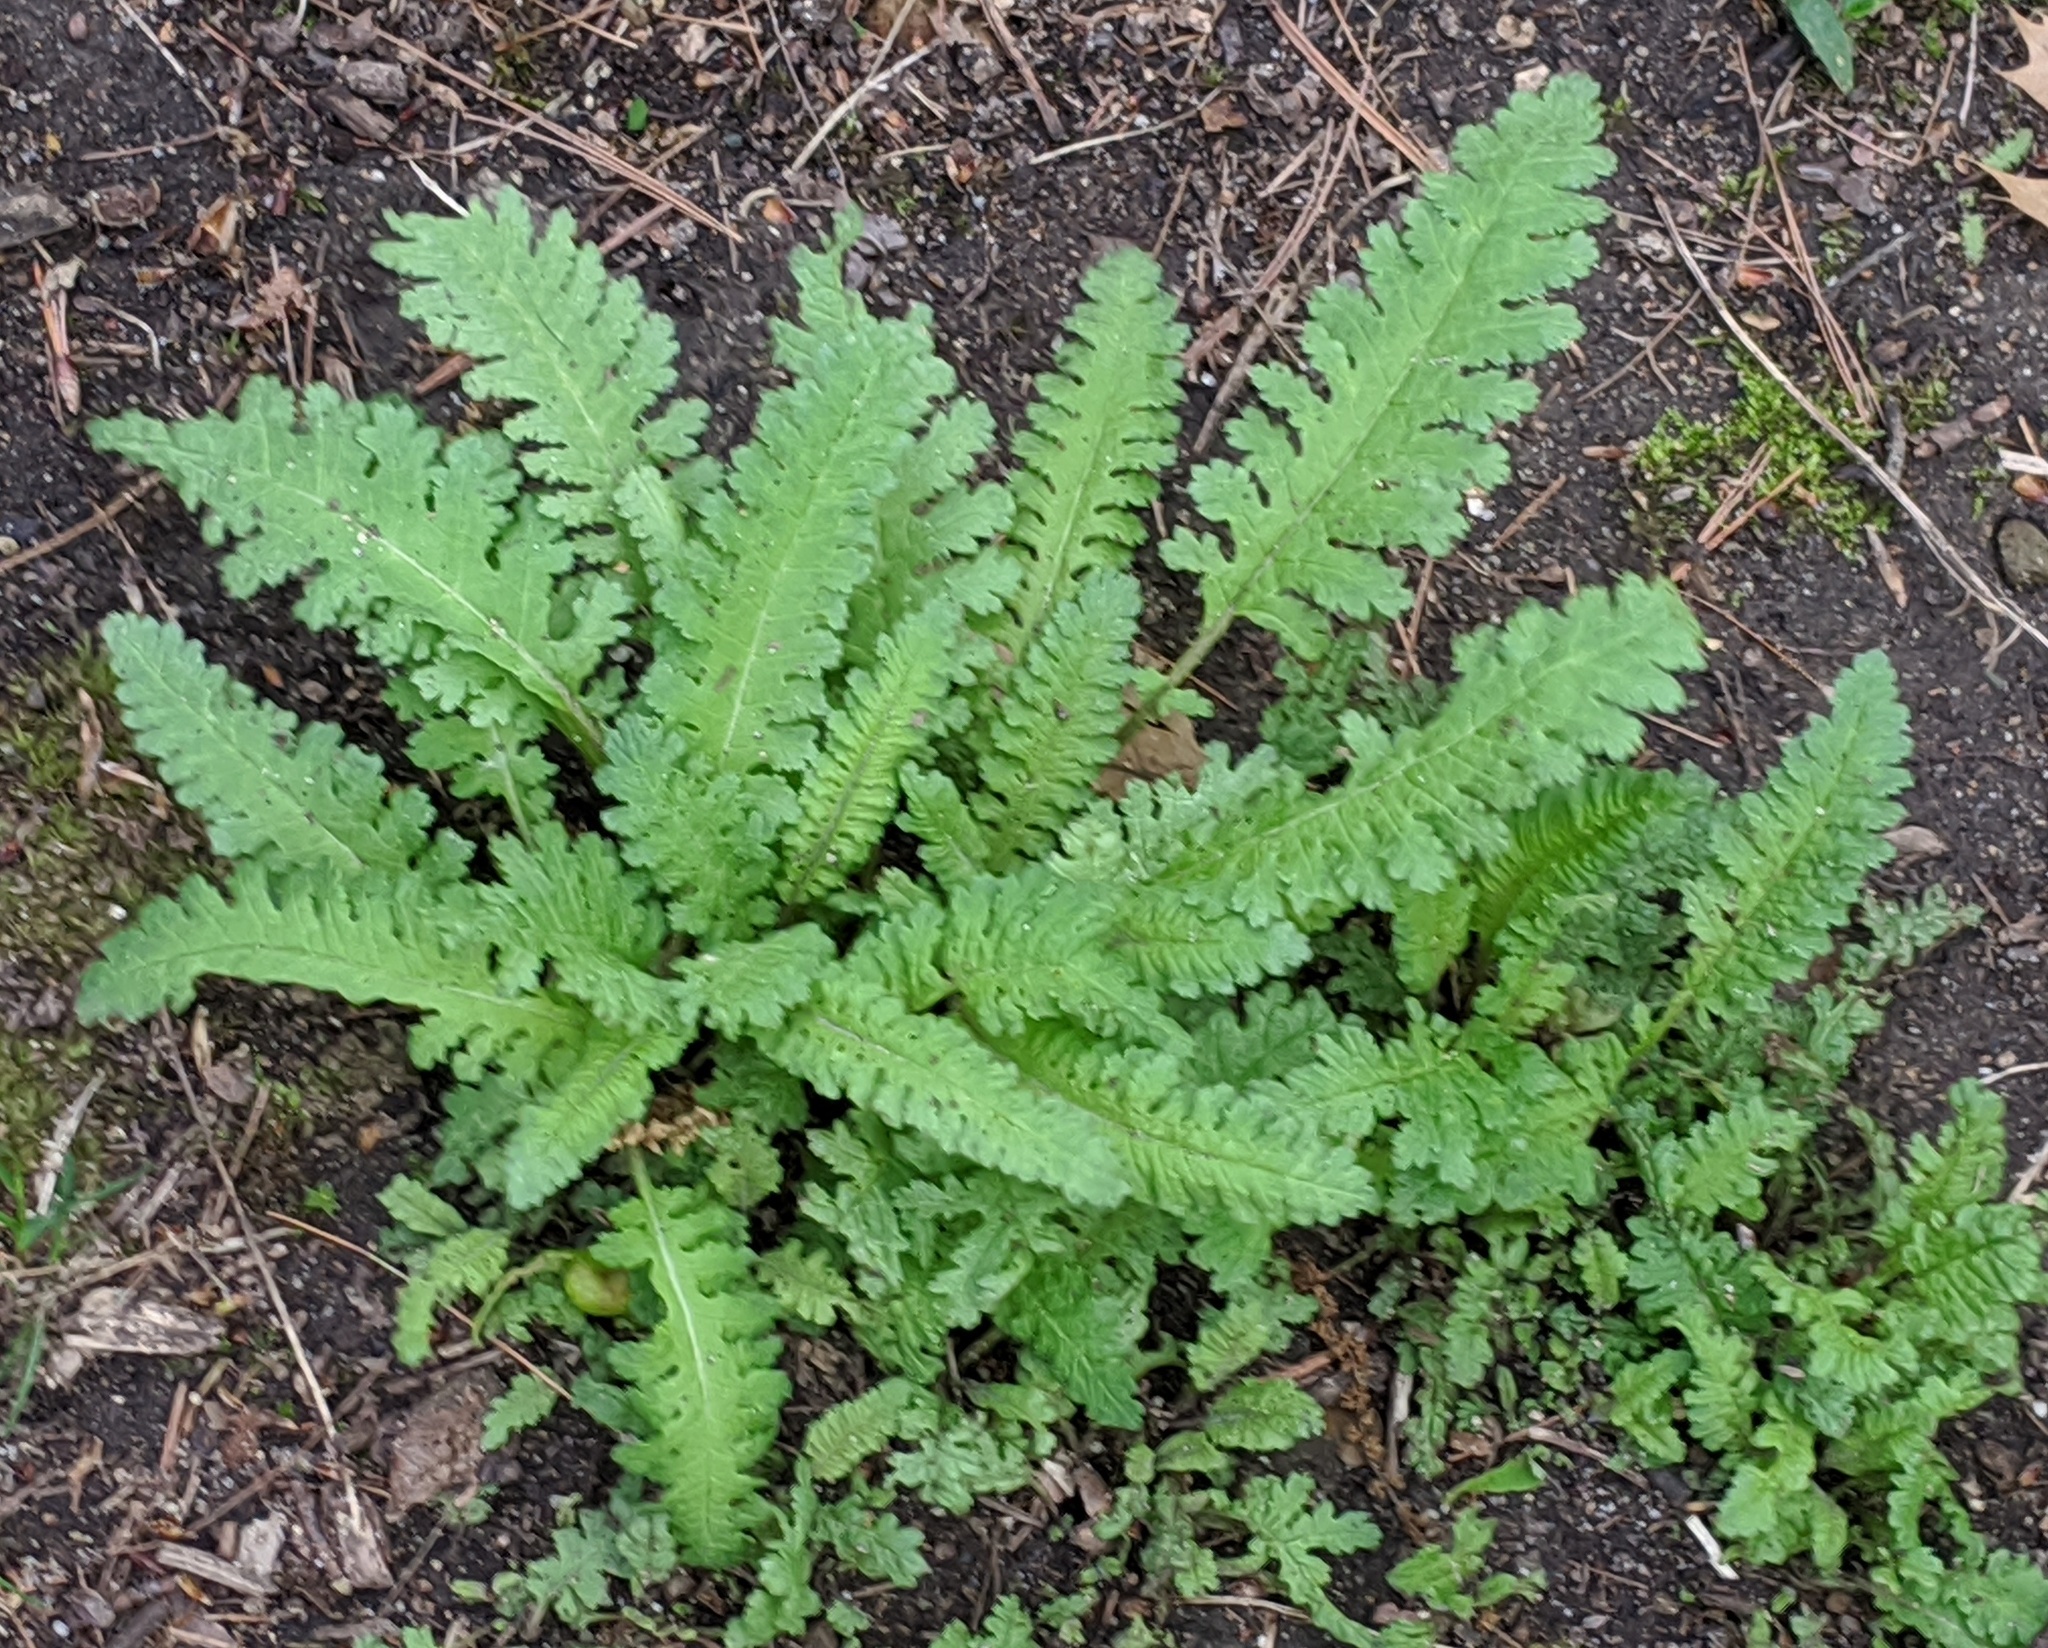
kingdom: Plantae
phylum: Tracheophyta
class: Magnoliopsida
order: Lamiales
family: Orobanchaceae
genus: Pedicularis
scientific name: Pedicularis canadensis
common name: Early lousewort
